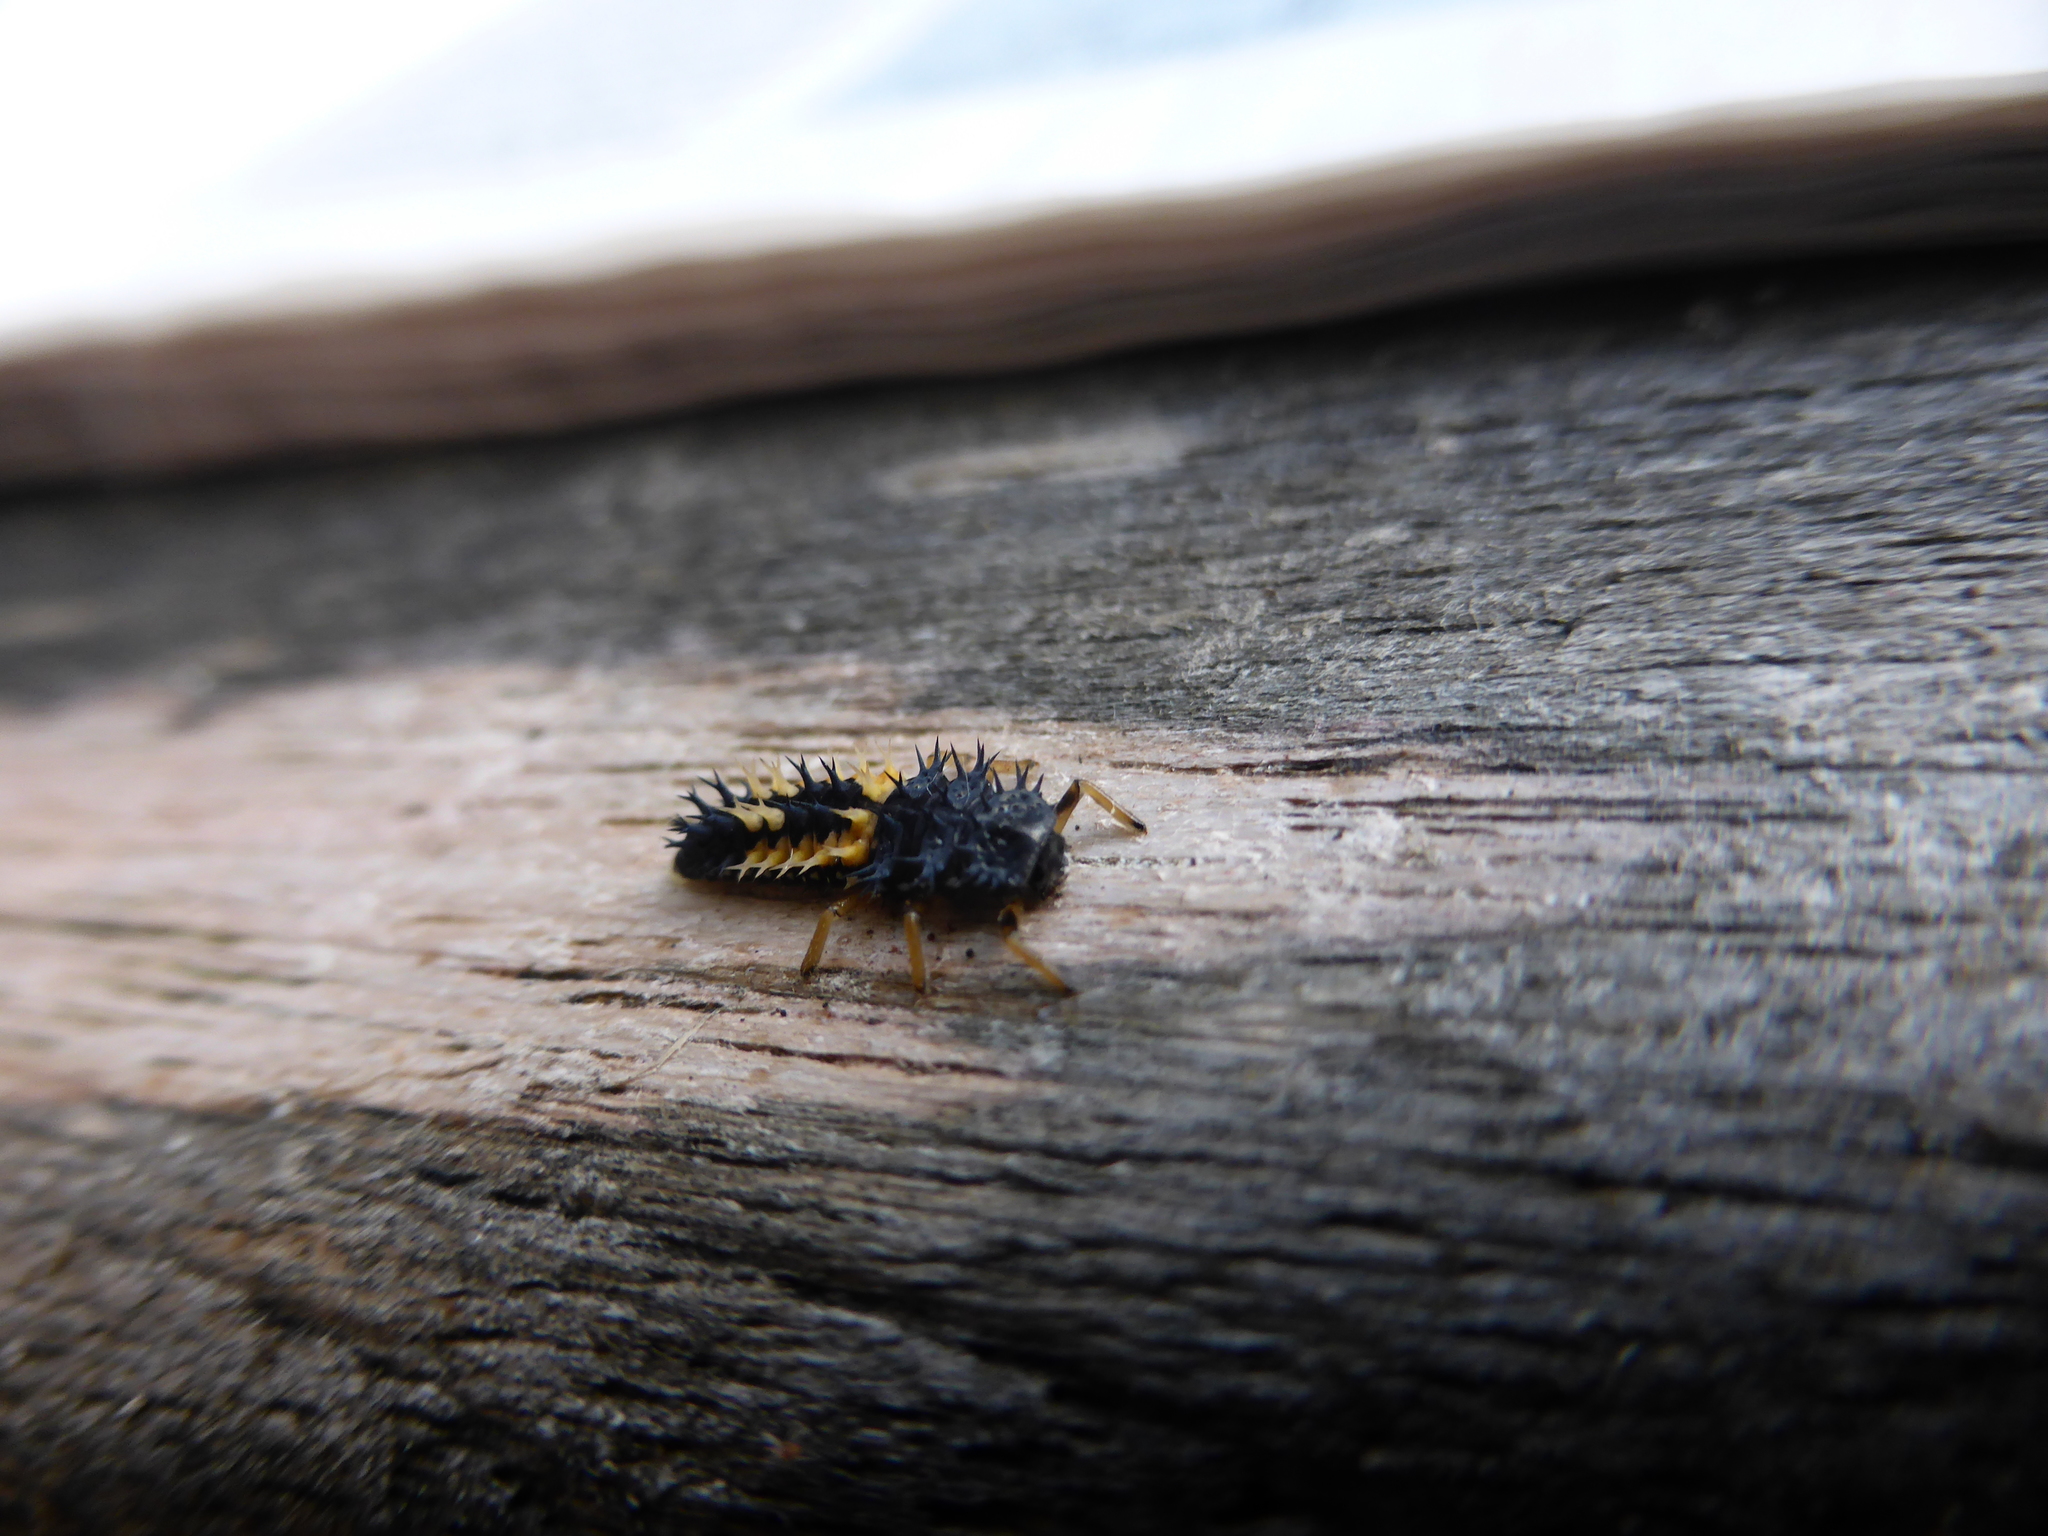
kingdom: Animalia
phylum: Arthropoda
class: Insecta
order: Coleoptera
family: Coccinellidae
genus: Harmonia
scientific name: Harmonia axyridis
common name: Harlequin ladybird
